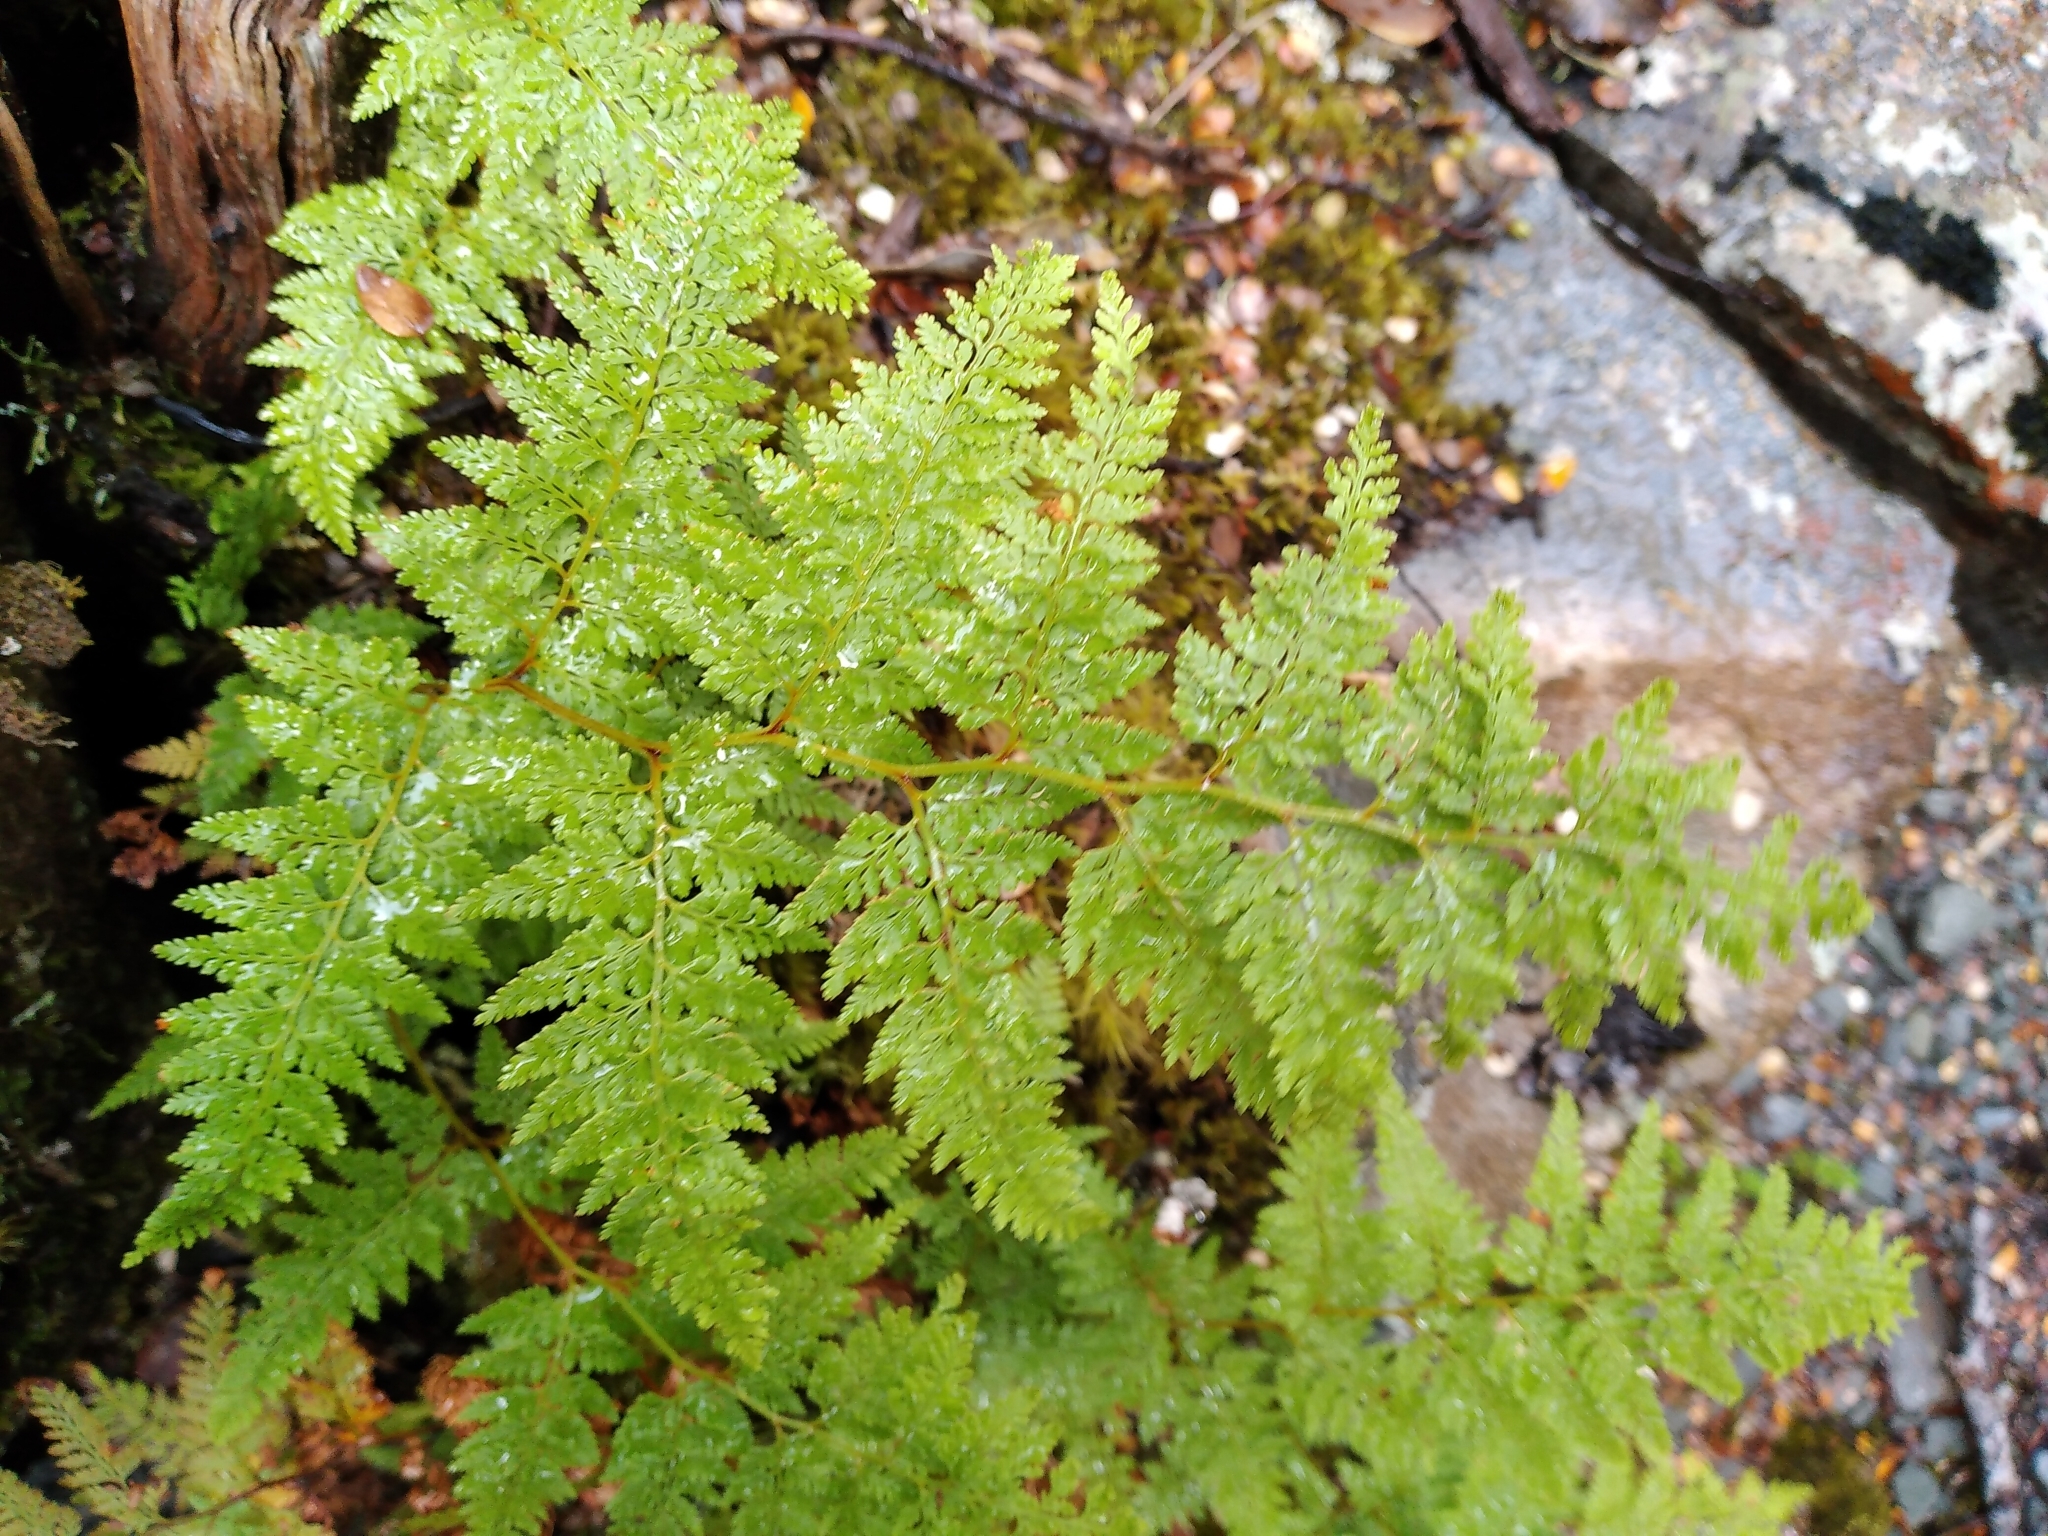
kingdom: Plantae
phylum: Tracheophyta
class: Polypodiopsida
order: Polypodiales
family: Dennstaedtiaceae
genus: Paesia
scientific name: Paesia scaberula
